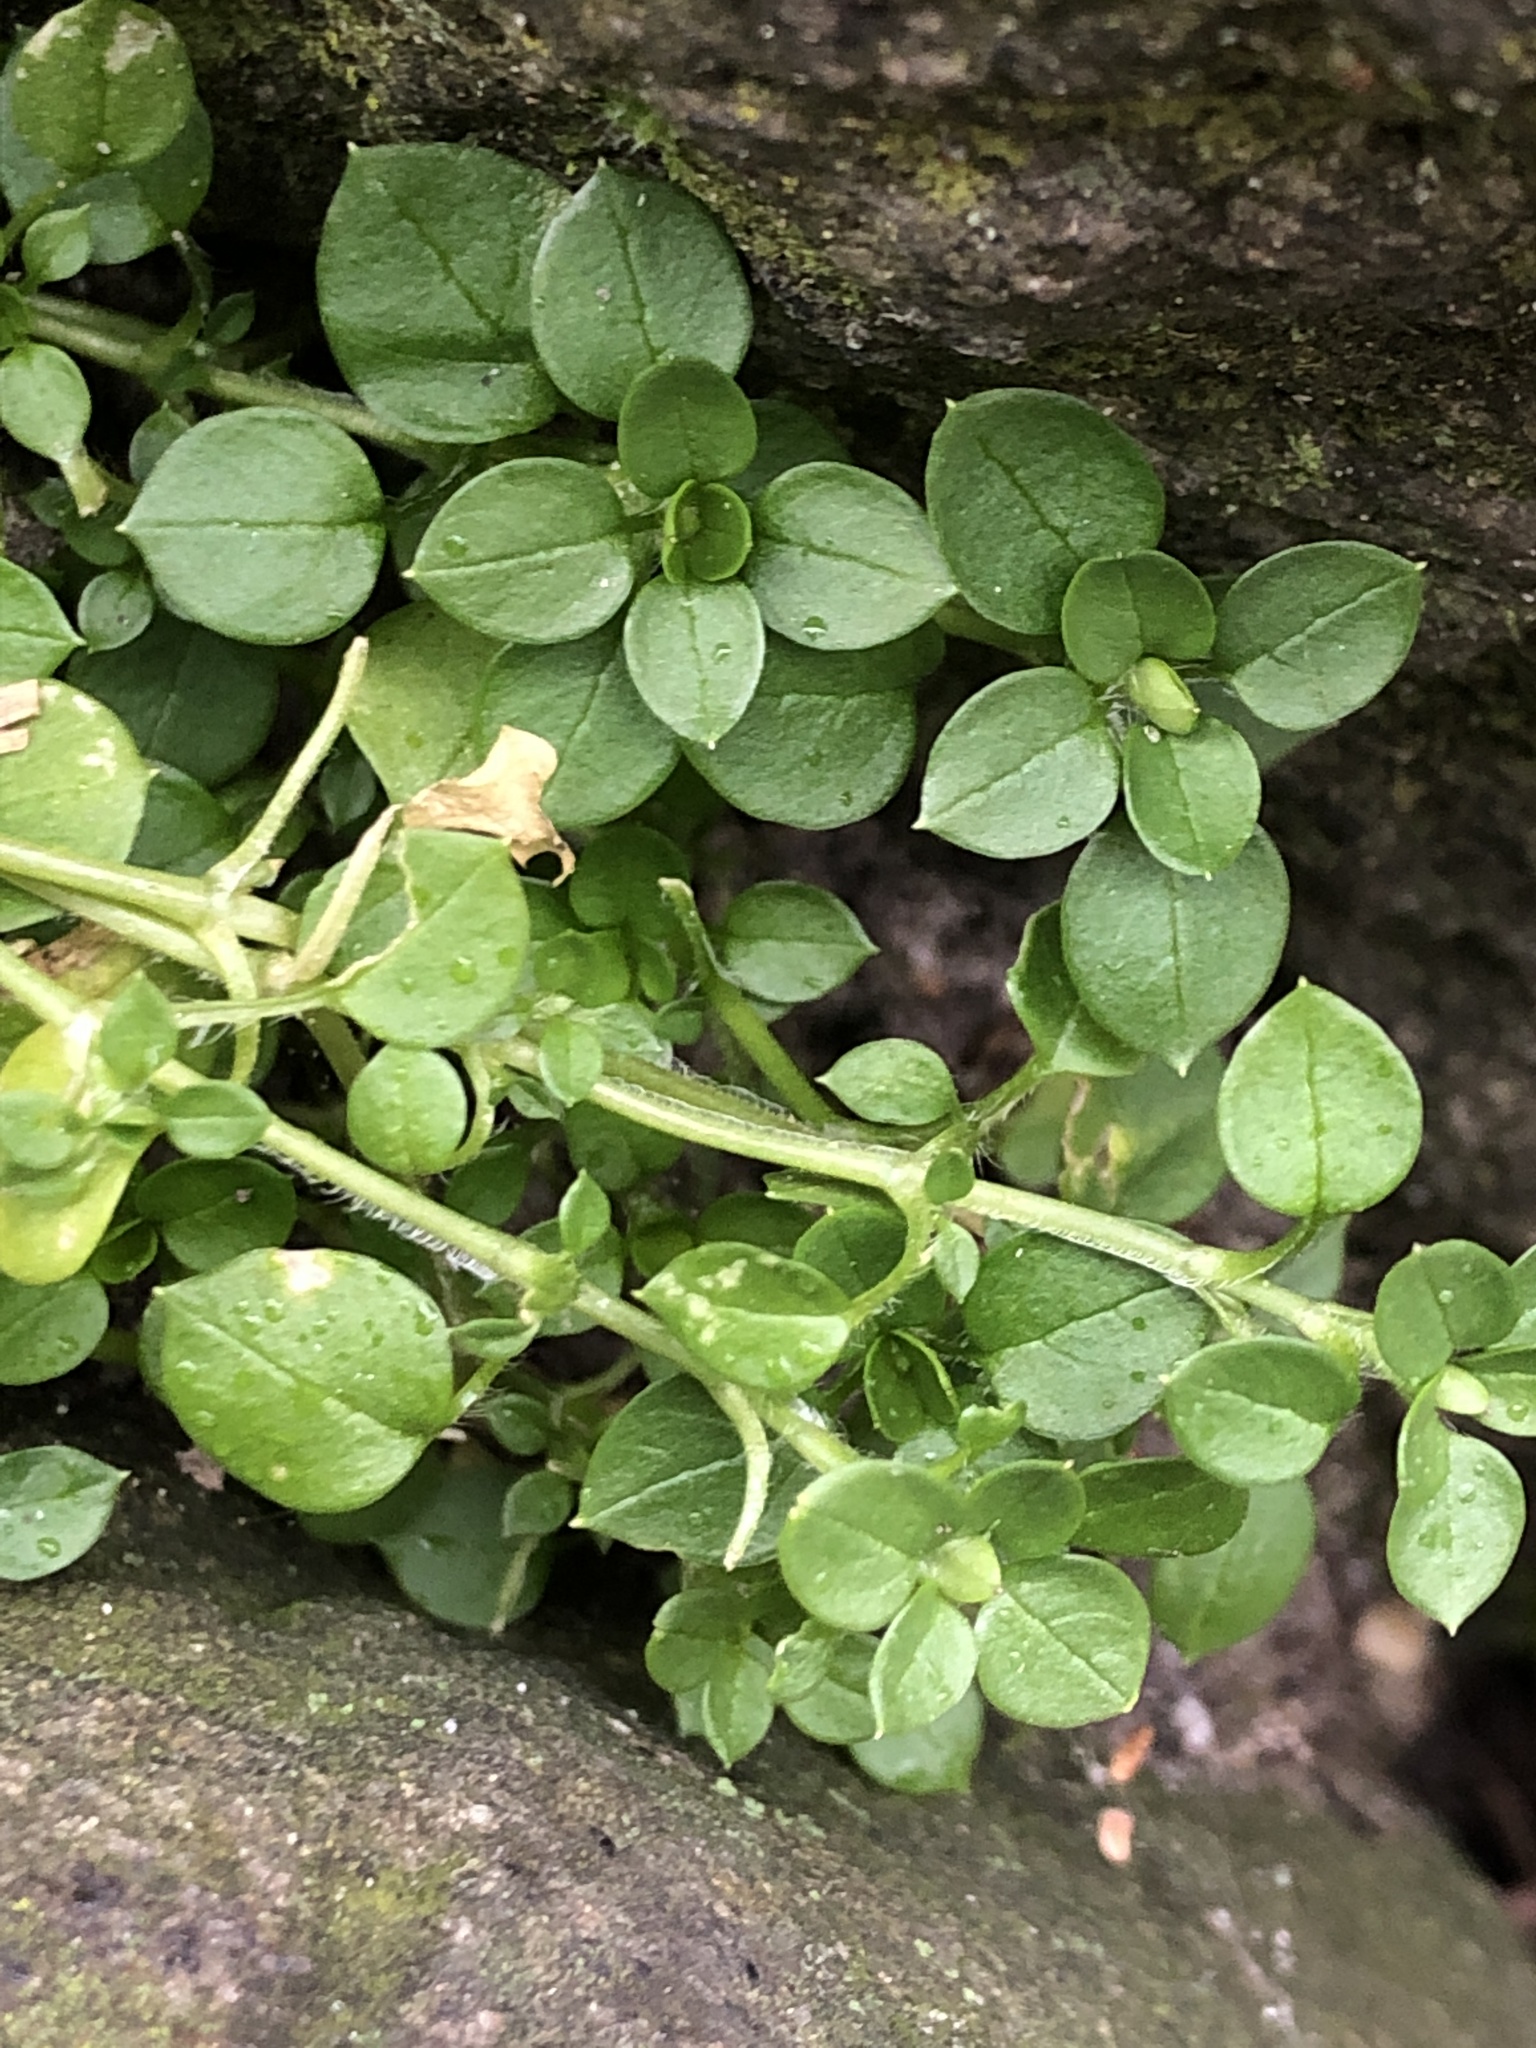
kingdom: Plantae
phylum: Tracheophyta
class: Magnoliopsida
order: Caryophyllales
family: Caryophyllaceae
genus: Stellaria
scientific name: Stellaria media
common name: Common chickweed
